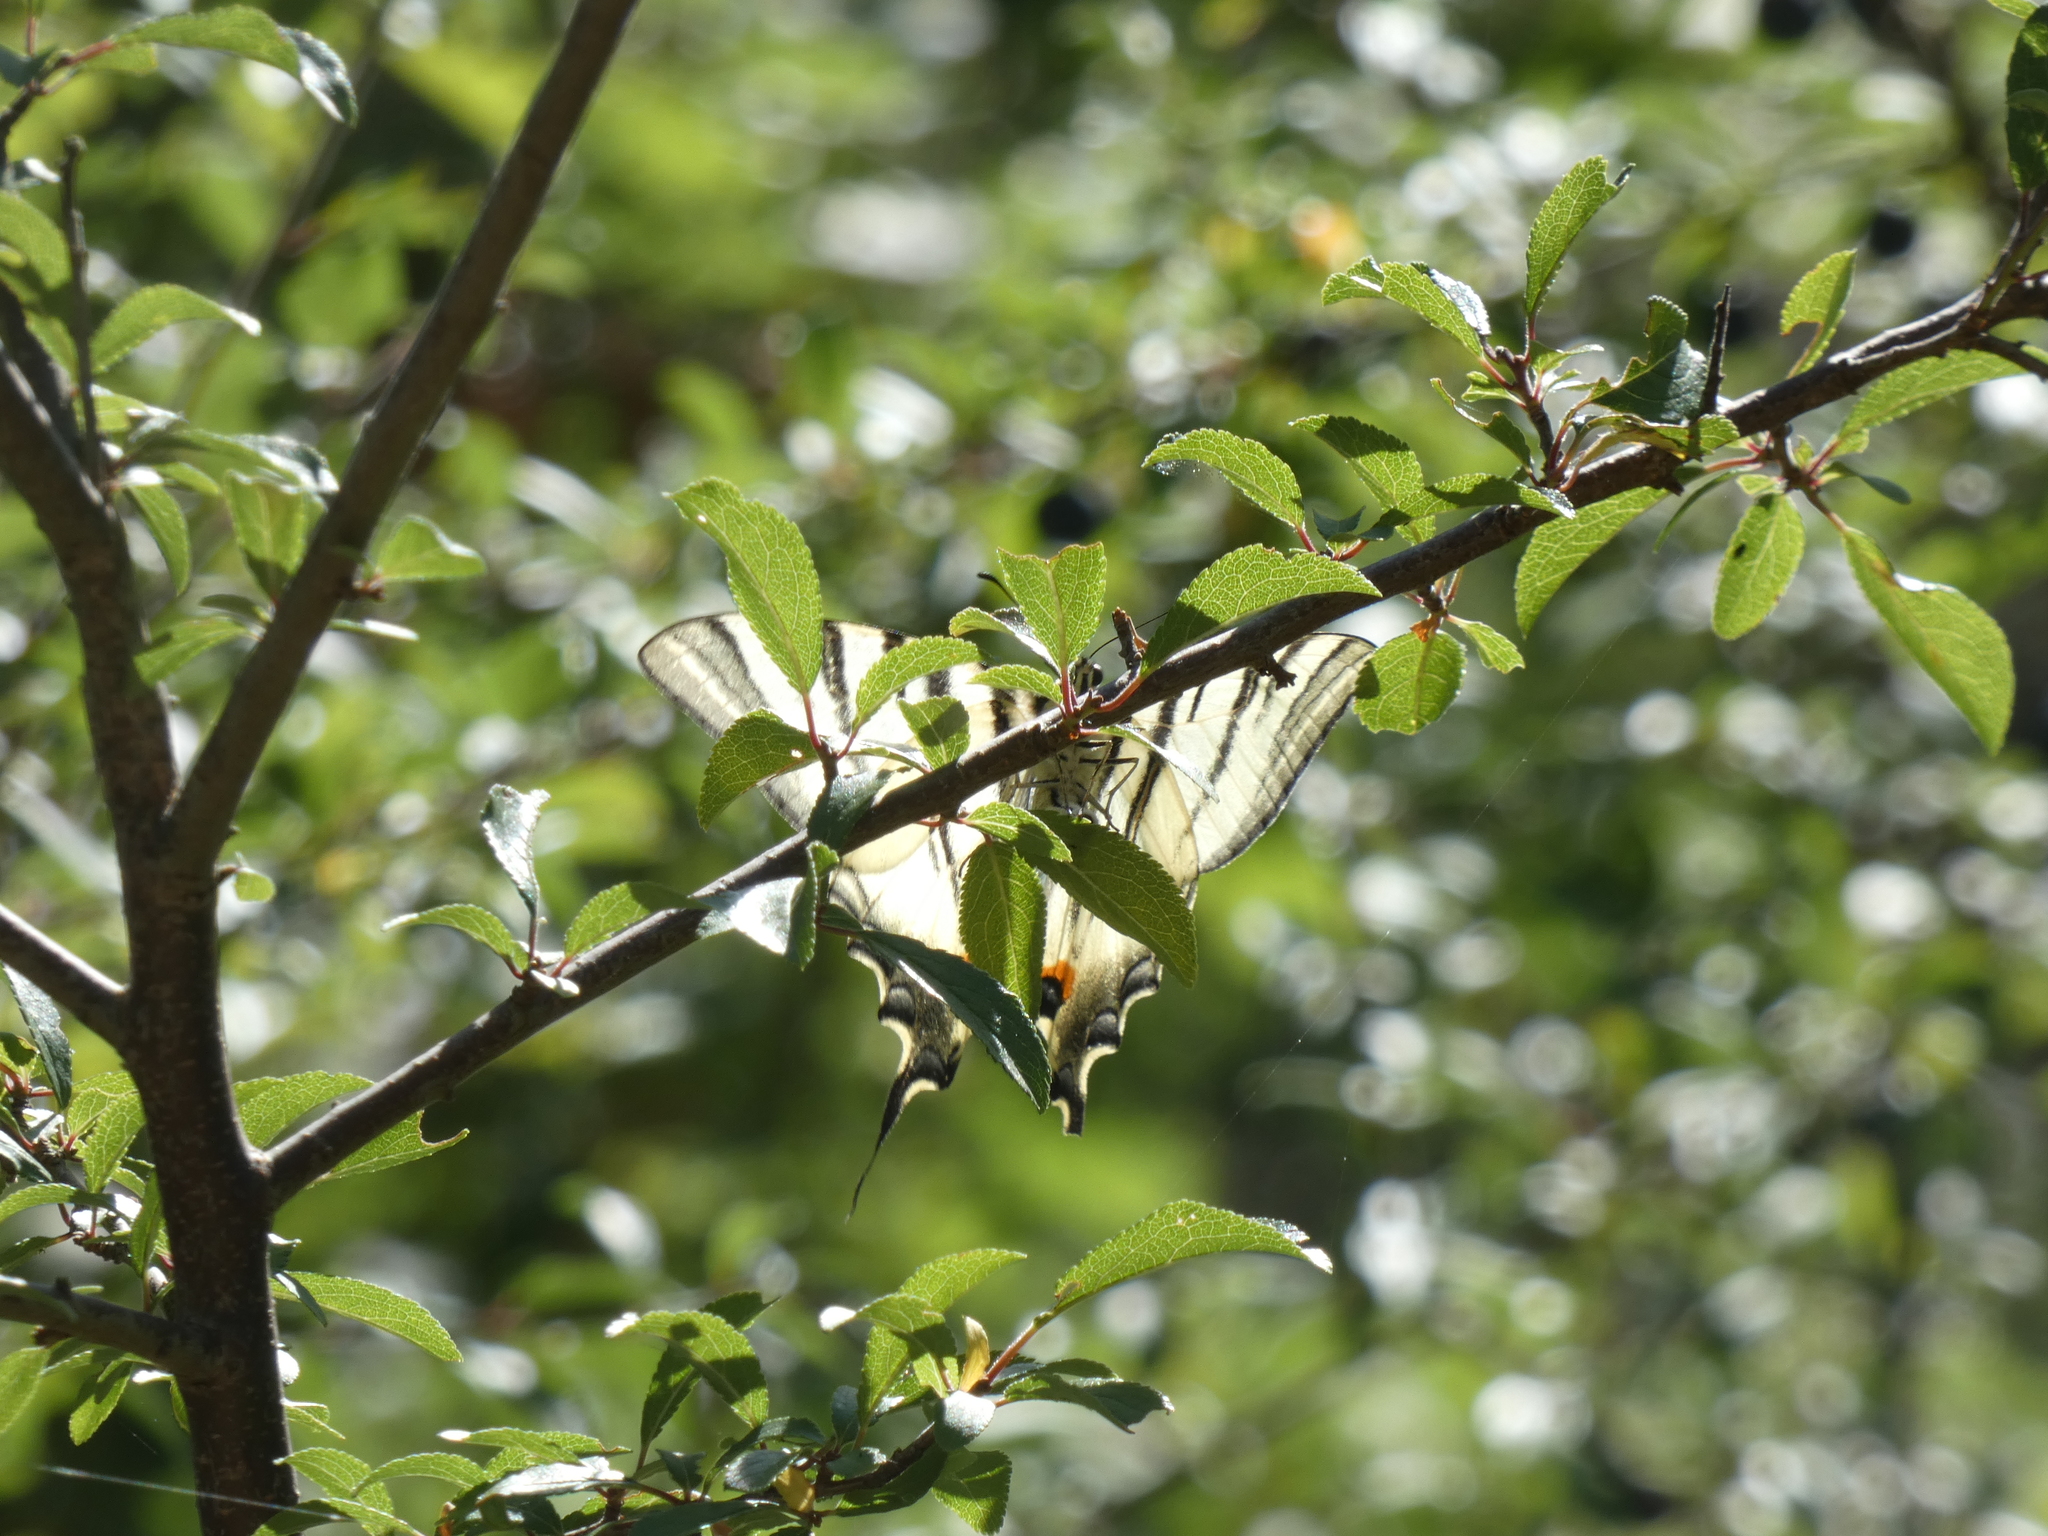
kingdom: Animalia
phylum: Arthropoda
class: Insecta
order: Lepidoptera
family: Papilionidae
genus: Iphiclides
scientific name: Iphiclides podalirius
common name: Scarce swallowtail
